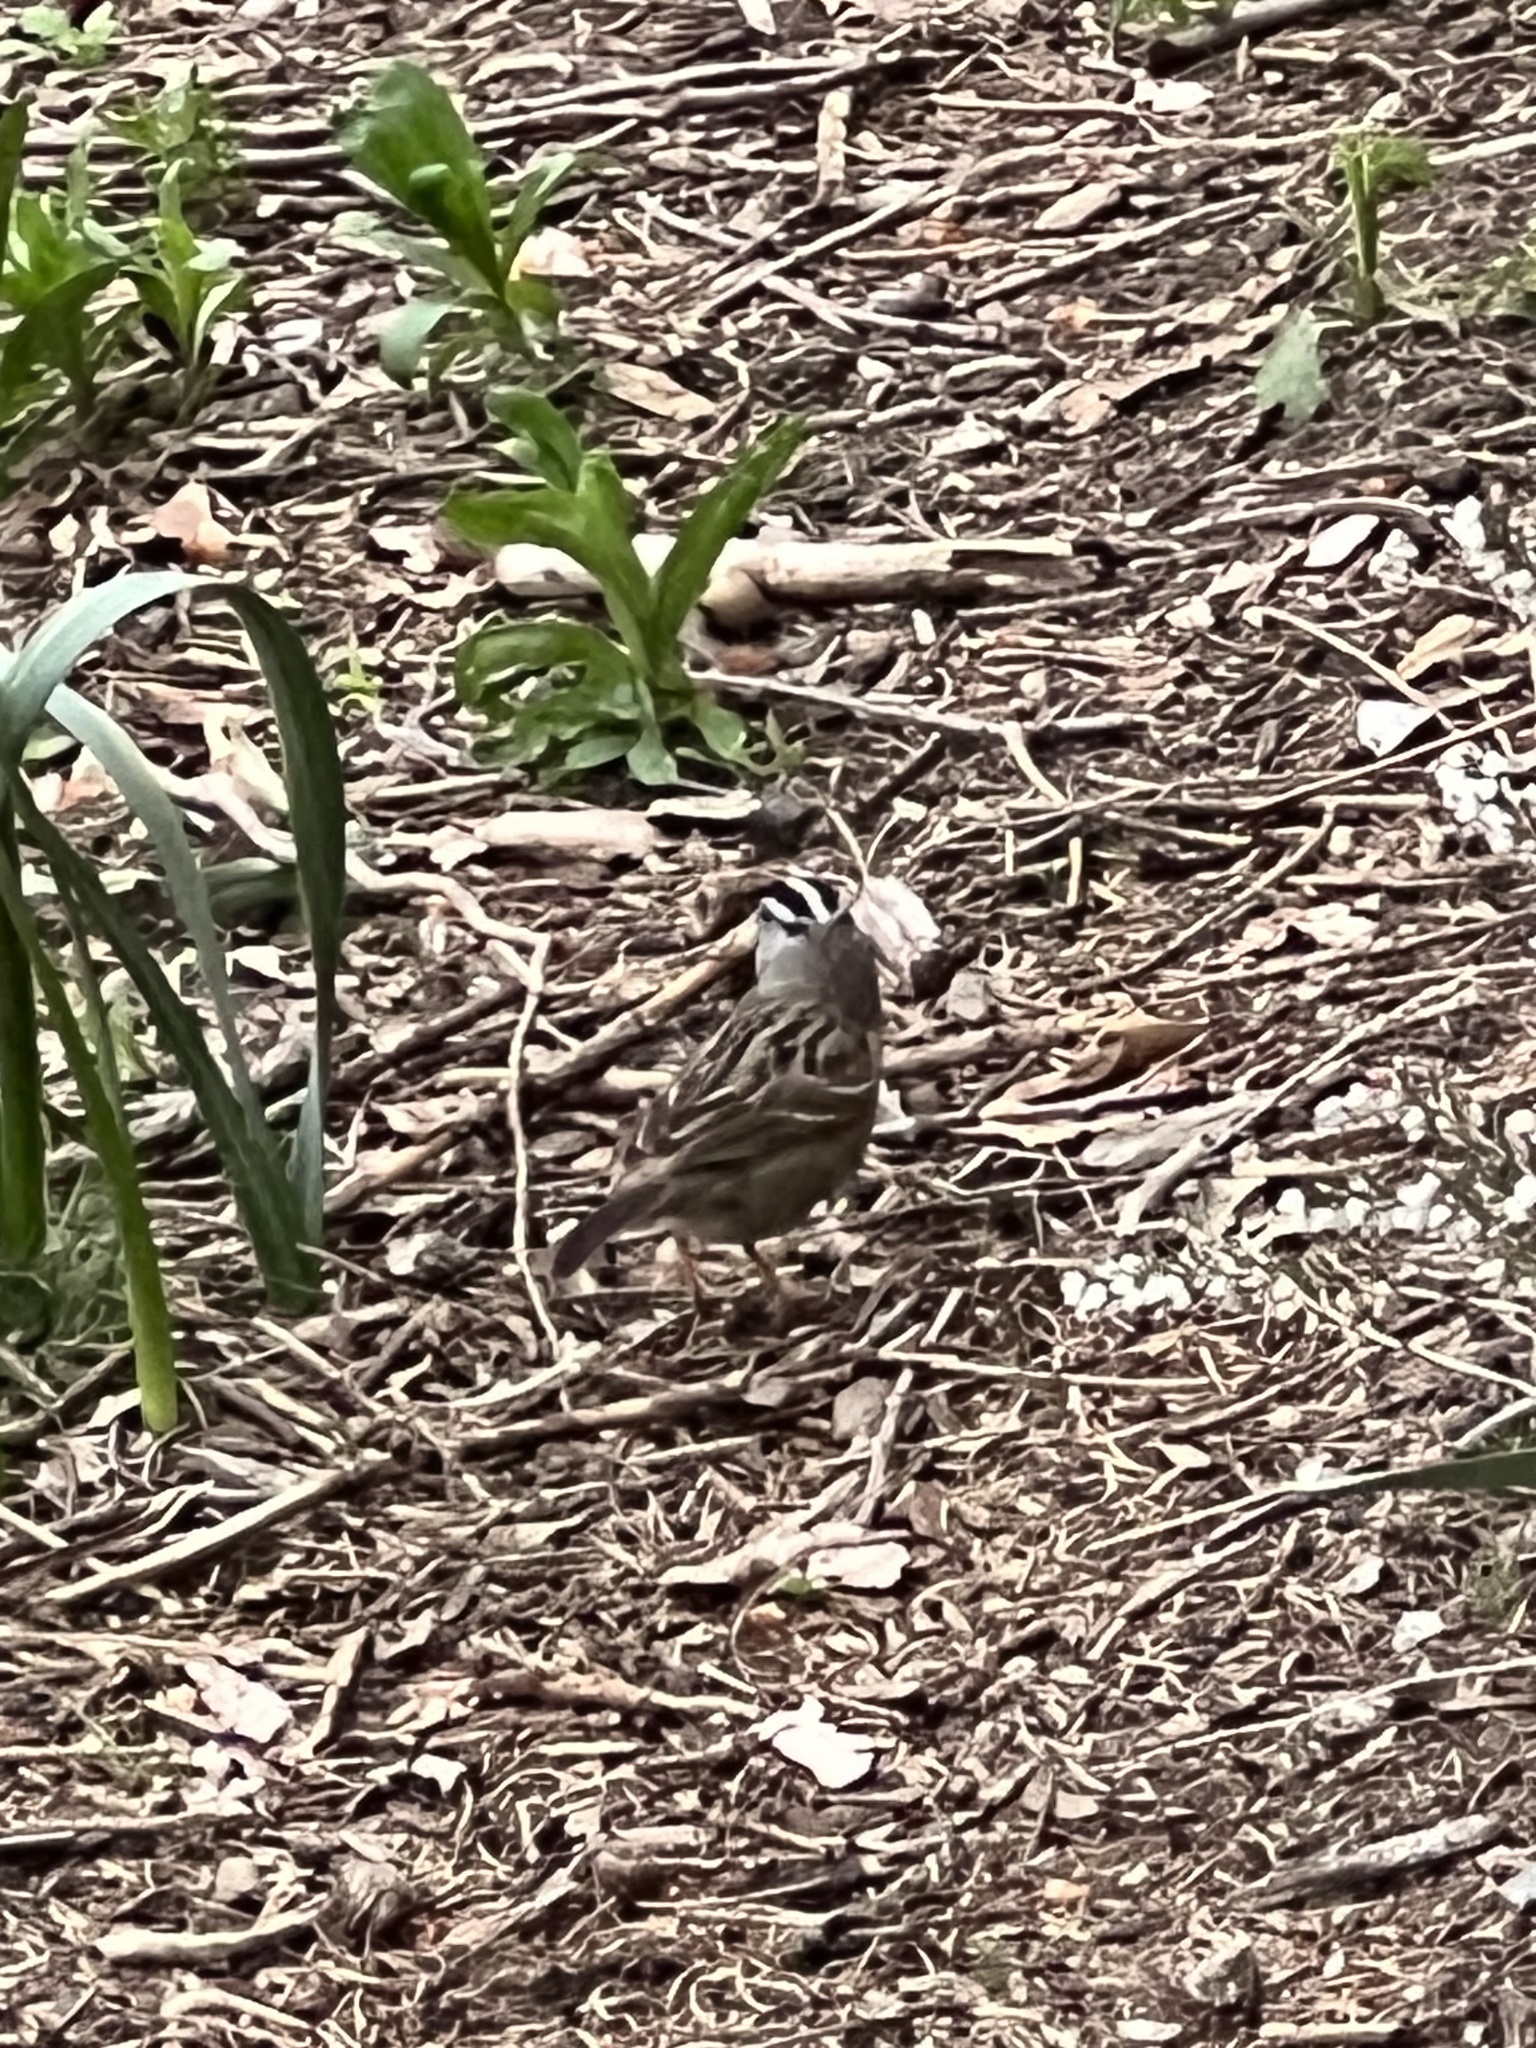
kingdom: Animalia
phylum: Chordata
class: Aves
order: Passeriformes
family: Passerellidae
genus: Zonotrichia
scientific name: Zonotrichia leucophrys
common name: White-crowned sparrow
